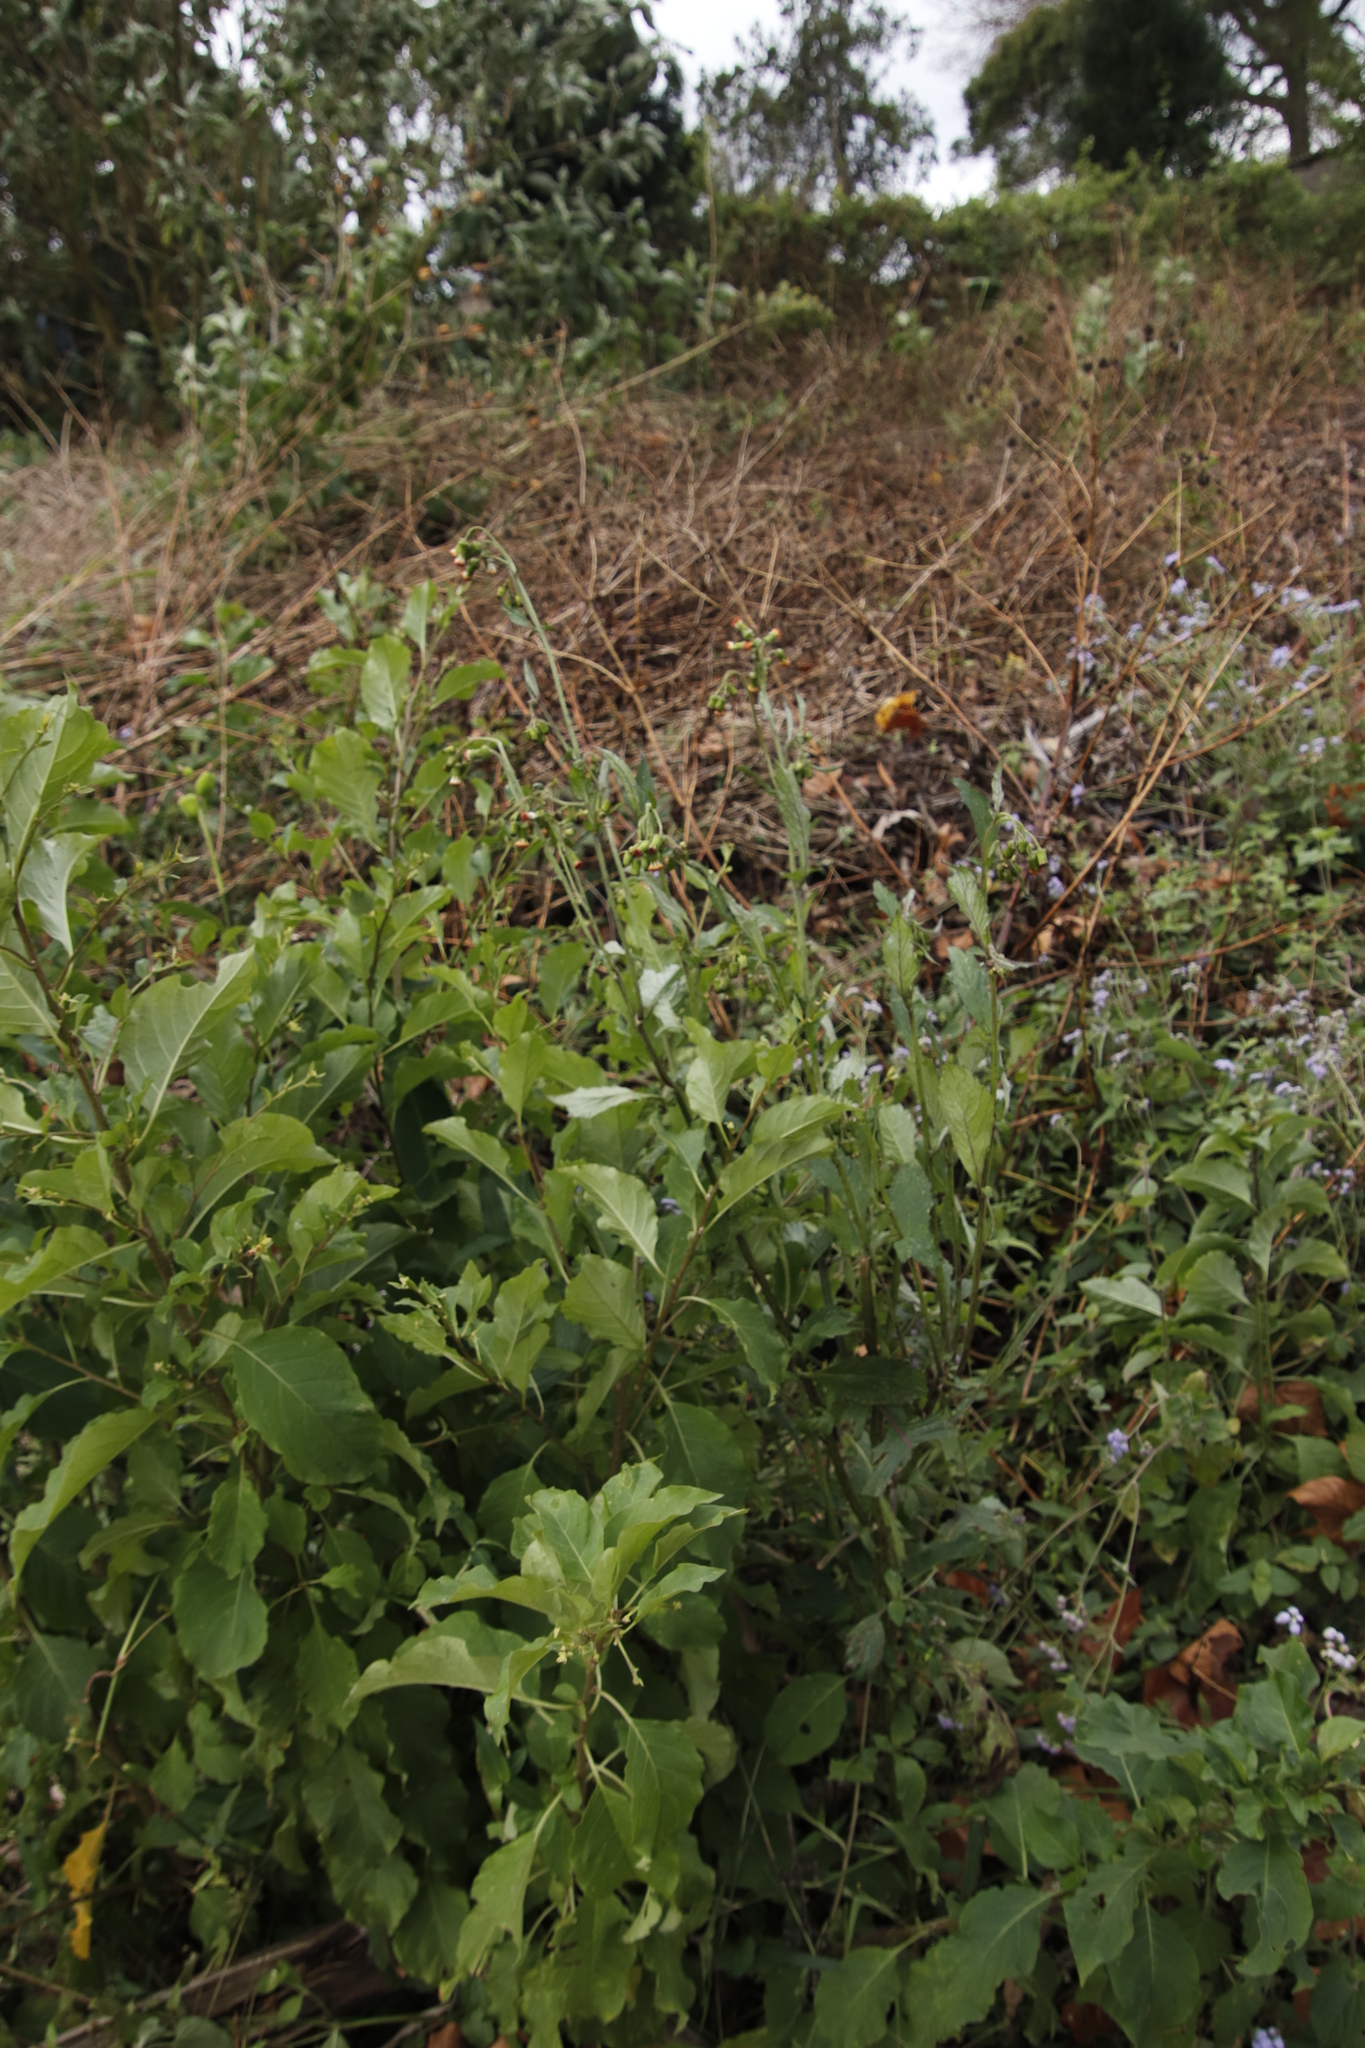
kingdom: Plantae
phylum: Tracheophyta
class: Magnoliopsida
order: Asterales
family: Asteraceae
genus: Crassocephalum
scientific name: Crassocephalum crepidioides
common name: Redflower ragleaf
